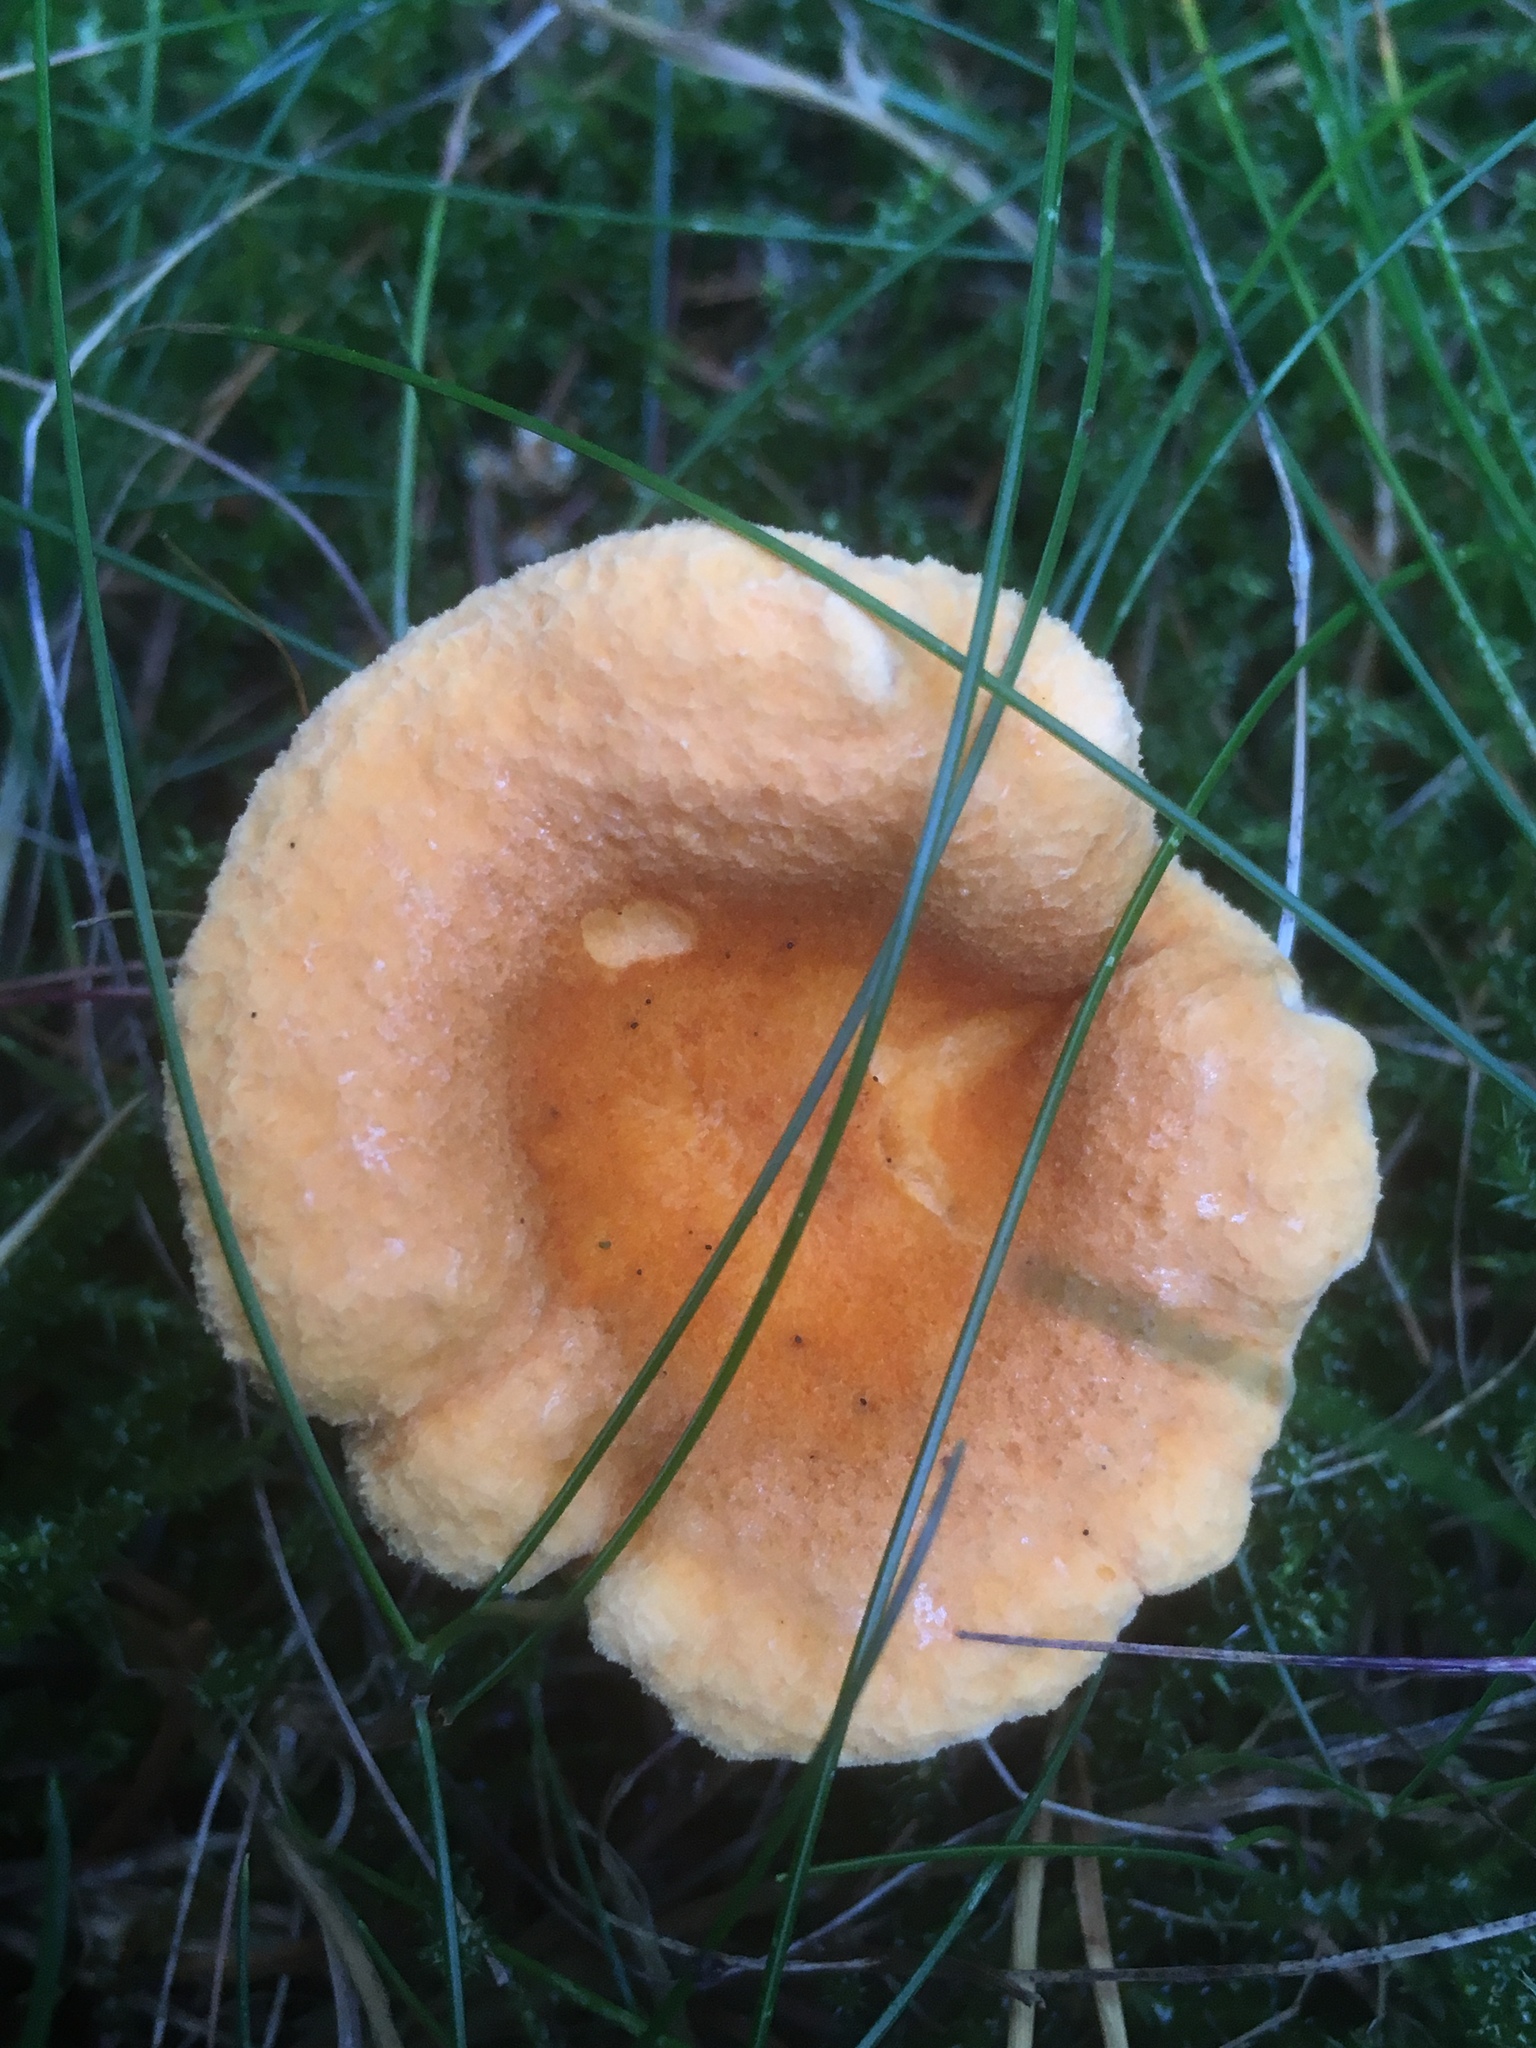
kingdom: Fungi
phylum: Basidiomycota
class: Agaricomycetes
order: Boletales
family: Hygrophoropsidaceae
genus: Hygrophoropsis
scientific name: Hygrophoropsis aurantiaca
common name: False chanterelle
